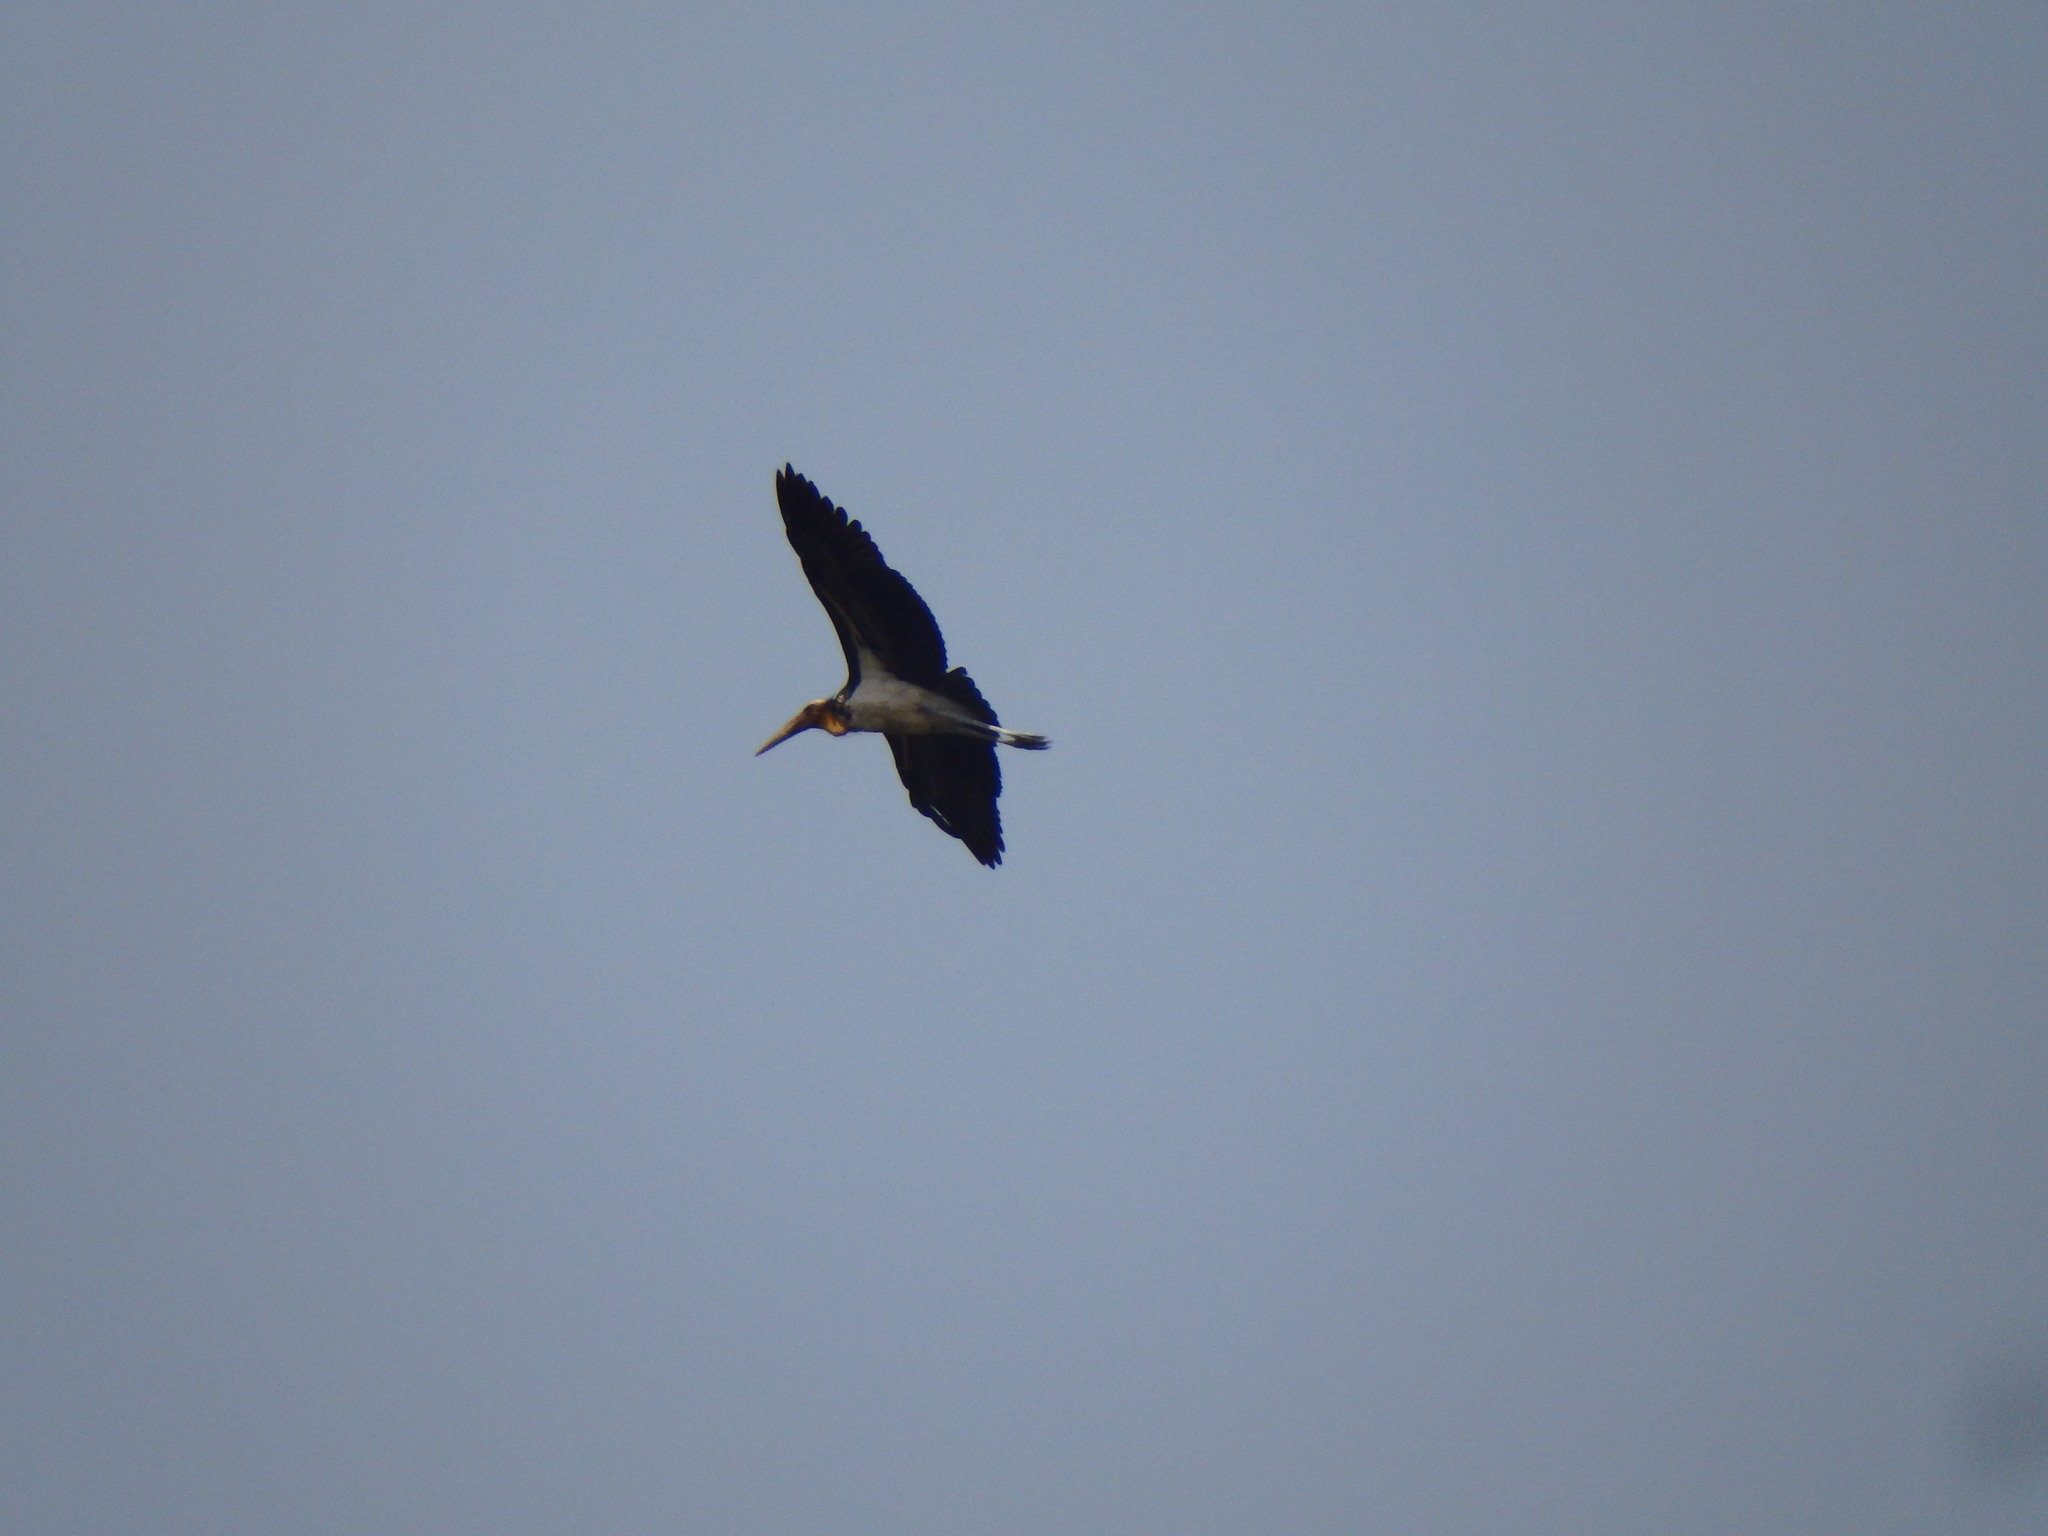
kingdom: Animalia
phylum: Chordata
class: Aves
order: Ciconiiformes
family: Ciconiidae
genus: Leptoptilos
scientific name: Leptoptilos javanicus
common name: Lesser adjutant
